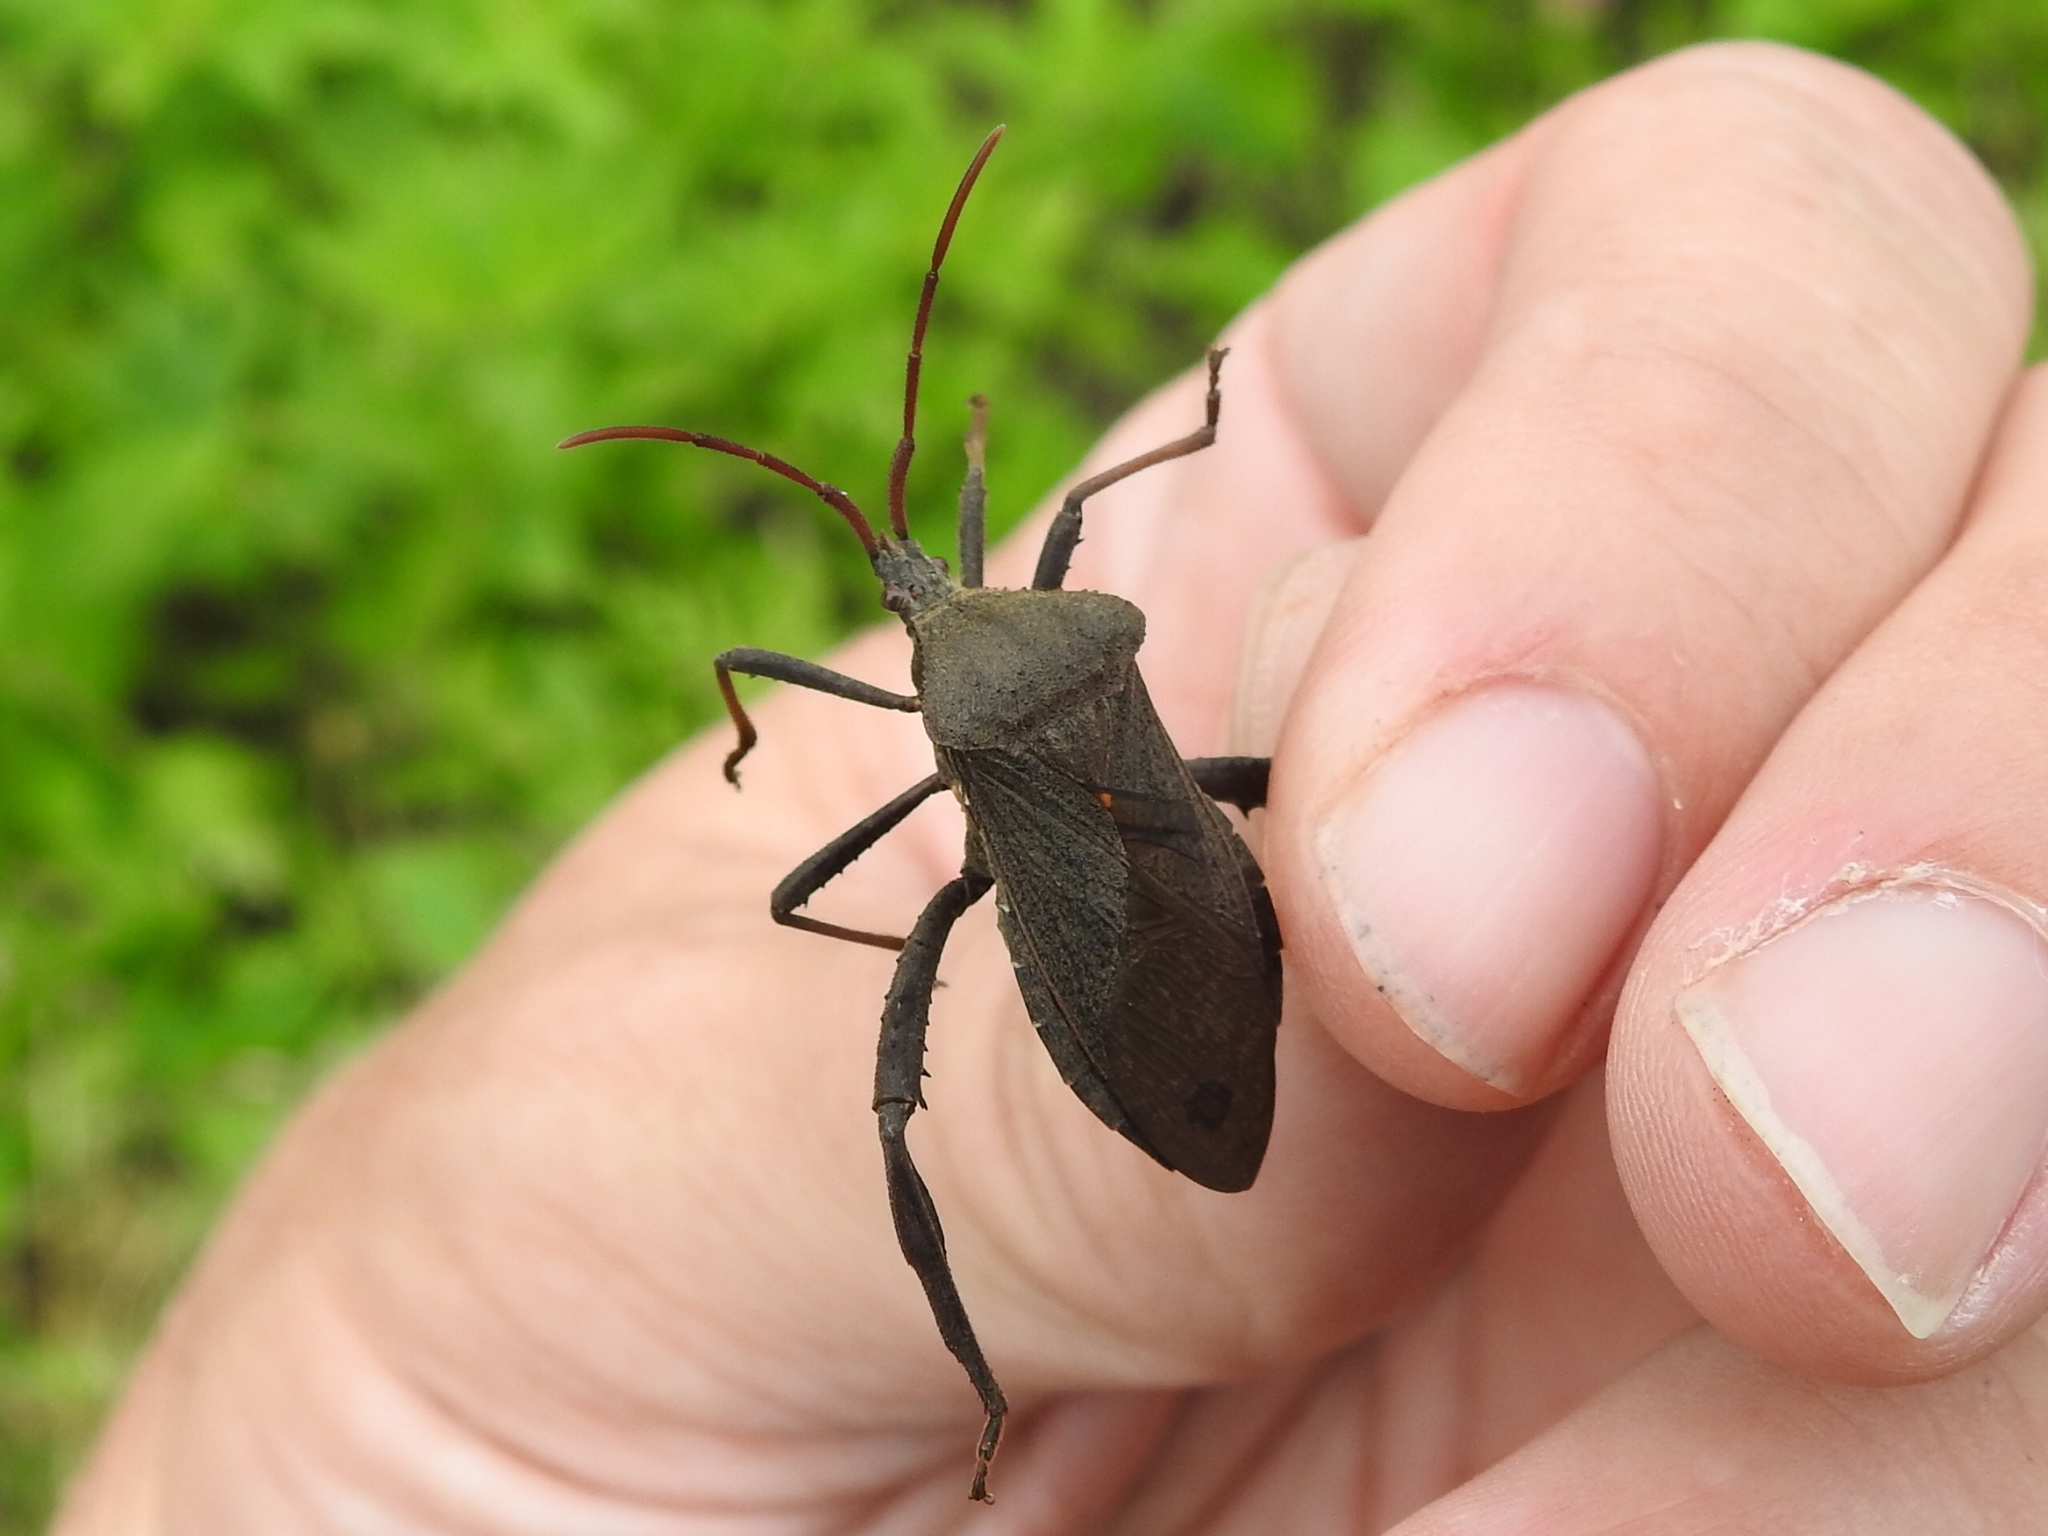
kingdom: Animalia
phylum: Arthropoda
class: Insecta
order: Hemiptera
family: Coreidae
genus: Acanthocephala
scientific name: Acanthocephala femorata
